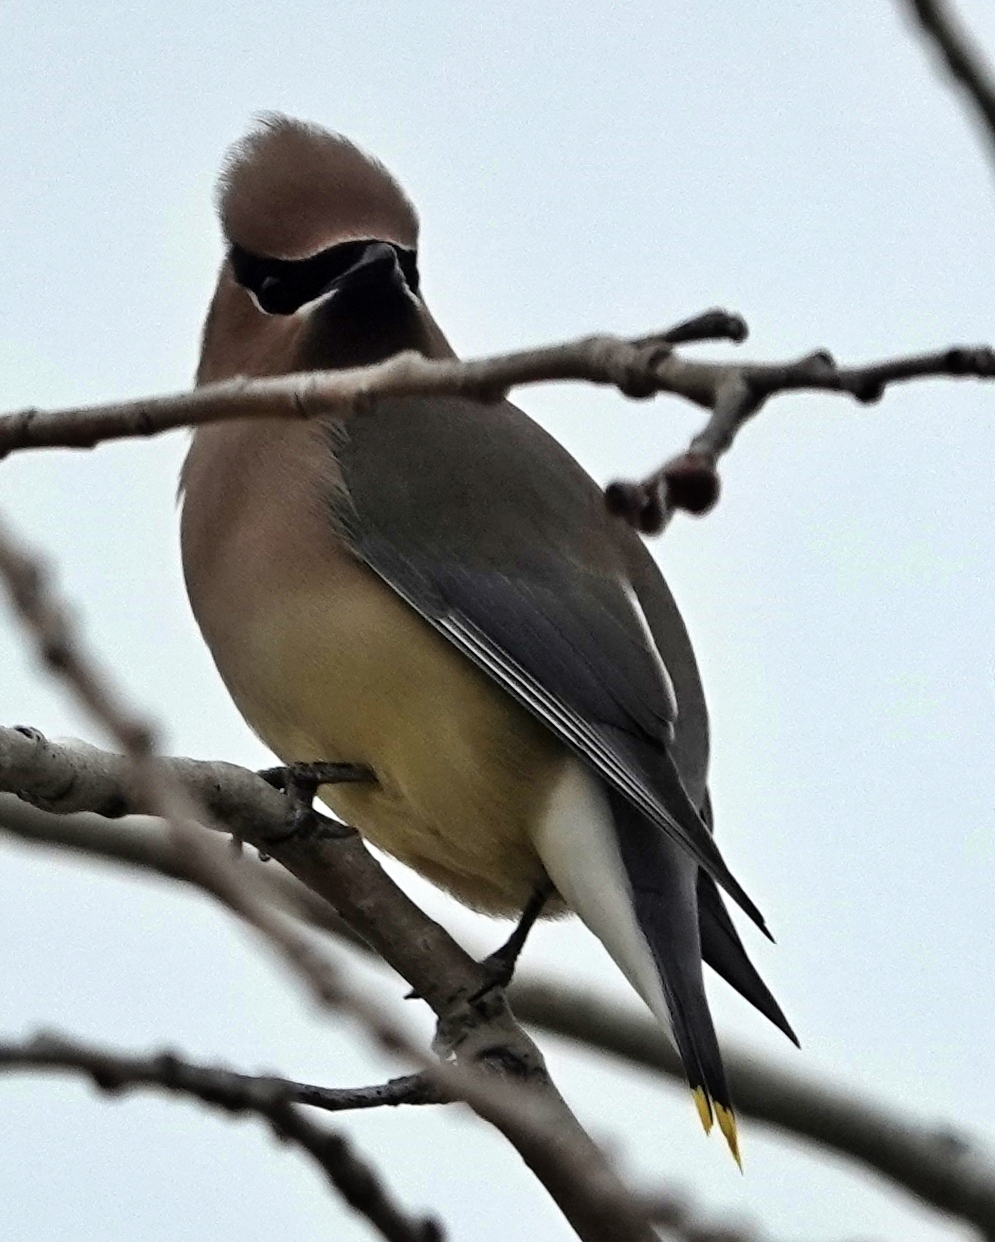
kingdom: Animalia
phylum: Chordata
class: Aves
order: Passeriformes
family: Bombycillidae
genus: Bombycilla
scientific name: Bombycilla cedrorum
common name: Cedar waxwing
